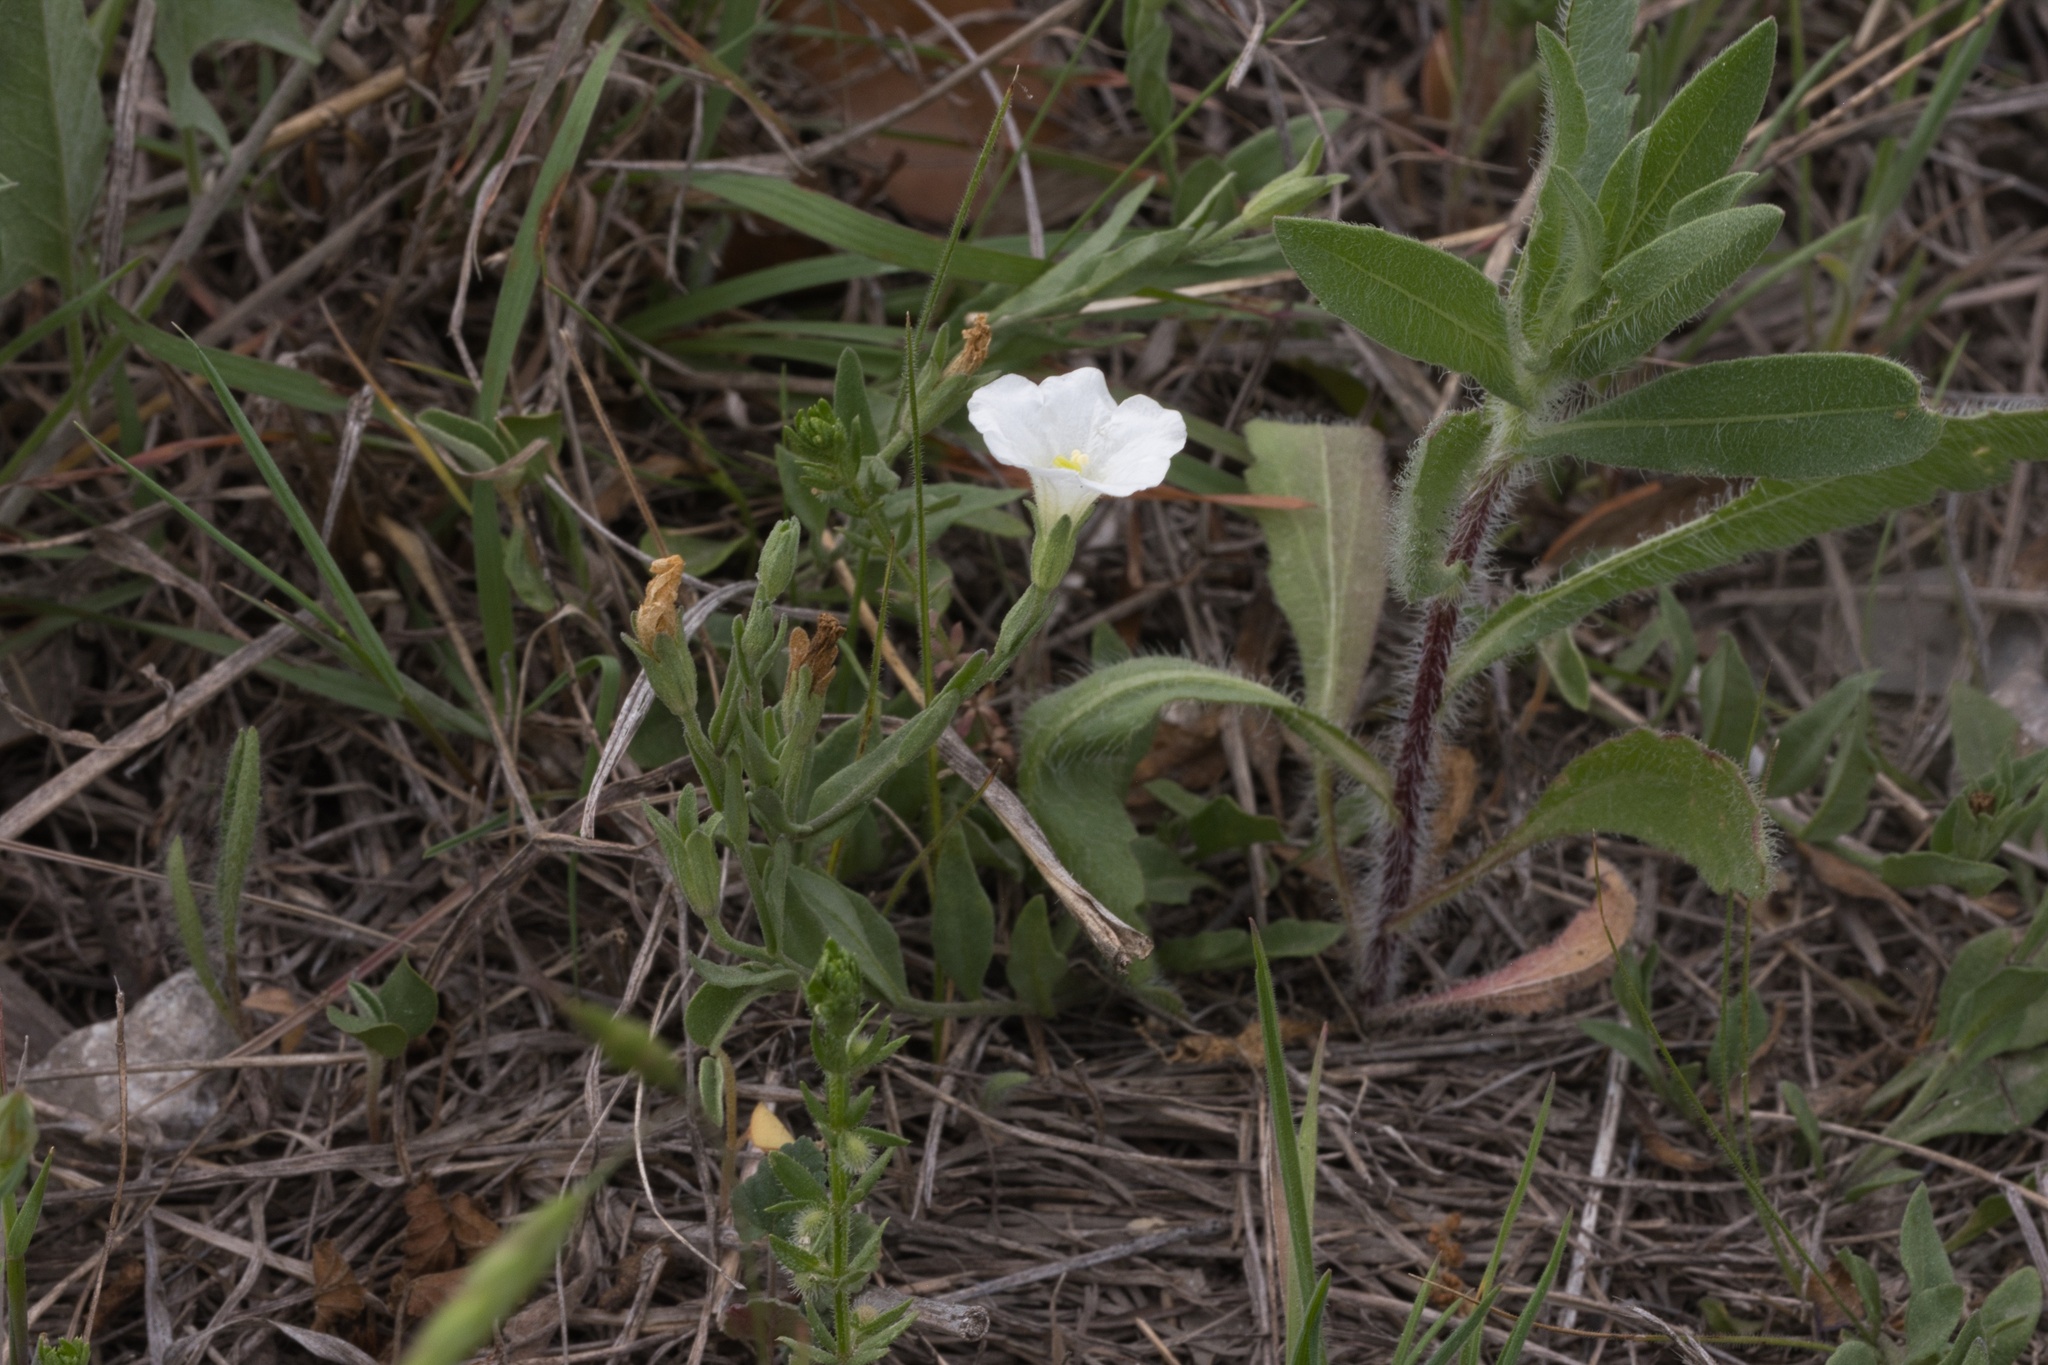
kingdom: Plantae
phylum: Tracheophyta
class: Magnoliopsida
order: Solanales
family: Solanaceae
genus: Salpiglossis
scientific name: Salpiglossis erecta
